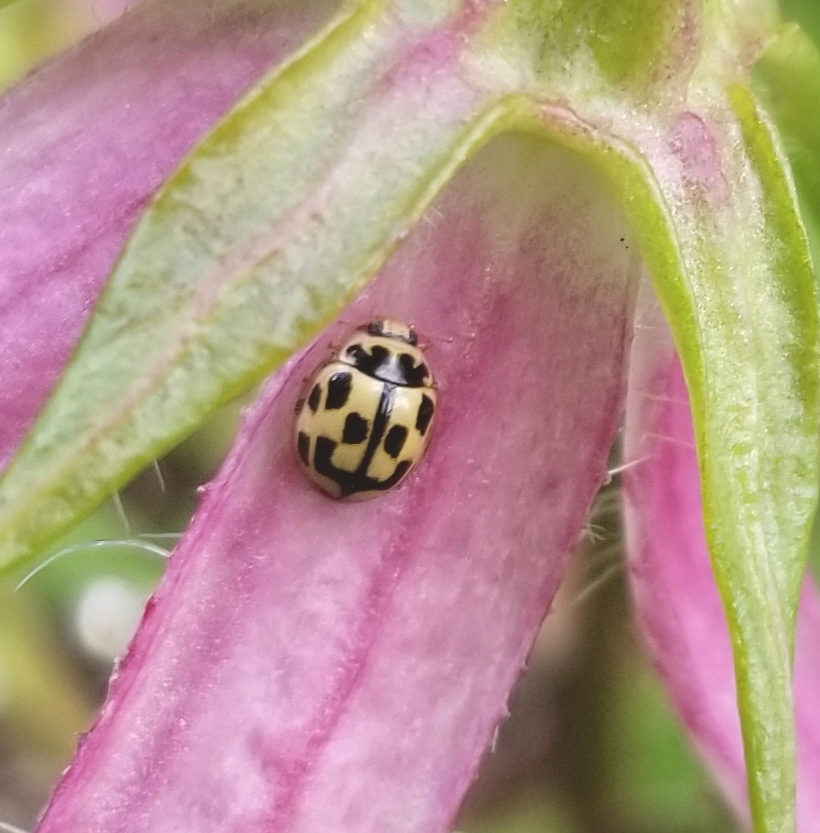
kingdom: Animalia
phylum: Arthropoda
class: Insecta
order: Coleoptera
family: Coccinellidae
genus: Propylaea
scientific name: Propylaea quatuordecimpunctata
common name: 14-spotted ladybird beetle
